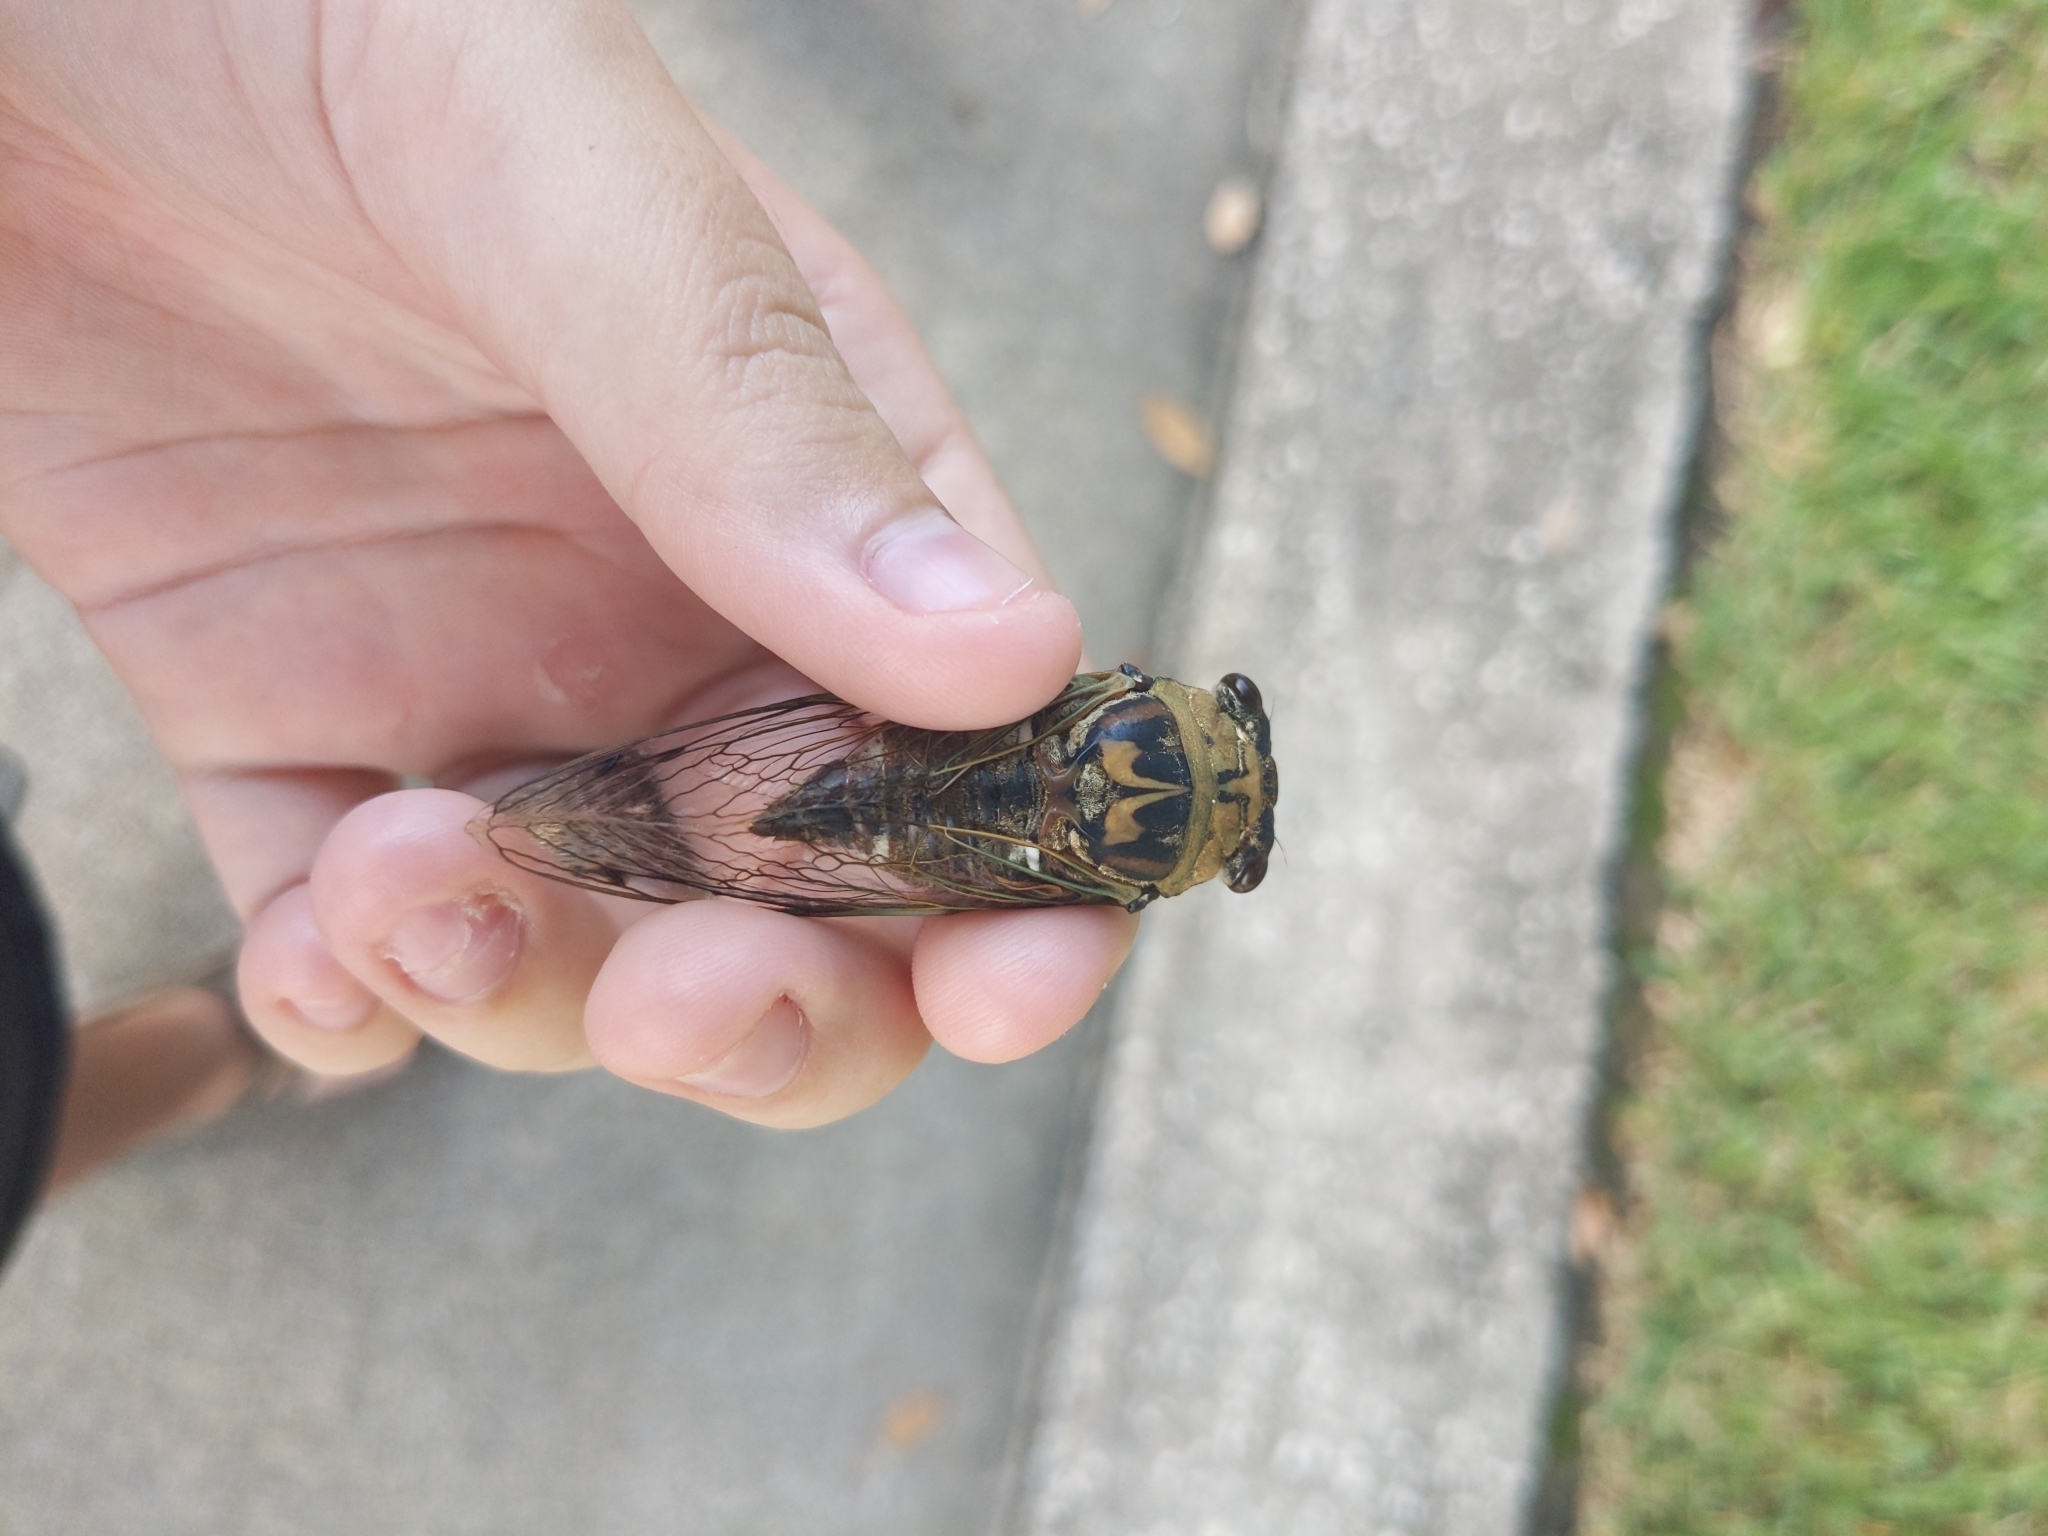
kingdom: Animalia
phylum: Arthropoda
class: Insecta
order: Hemiptera
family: Cicadidae
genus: Megatibicen
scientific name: Megatibicen resh
